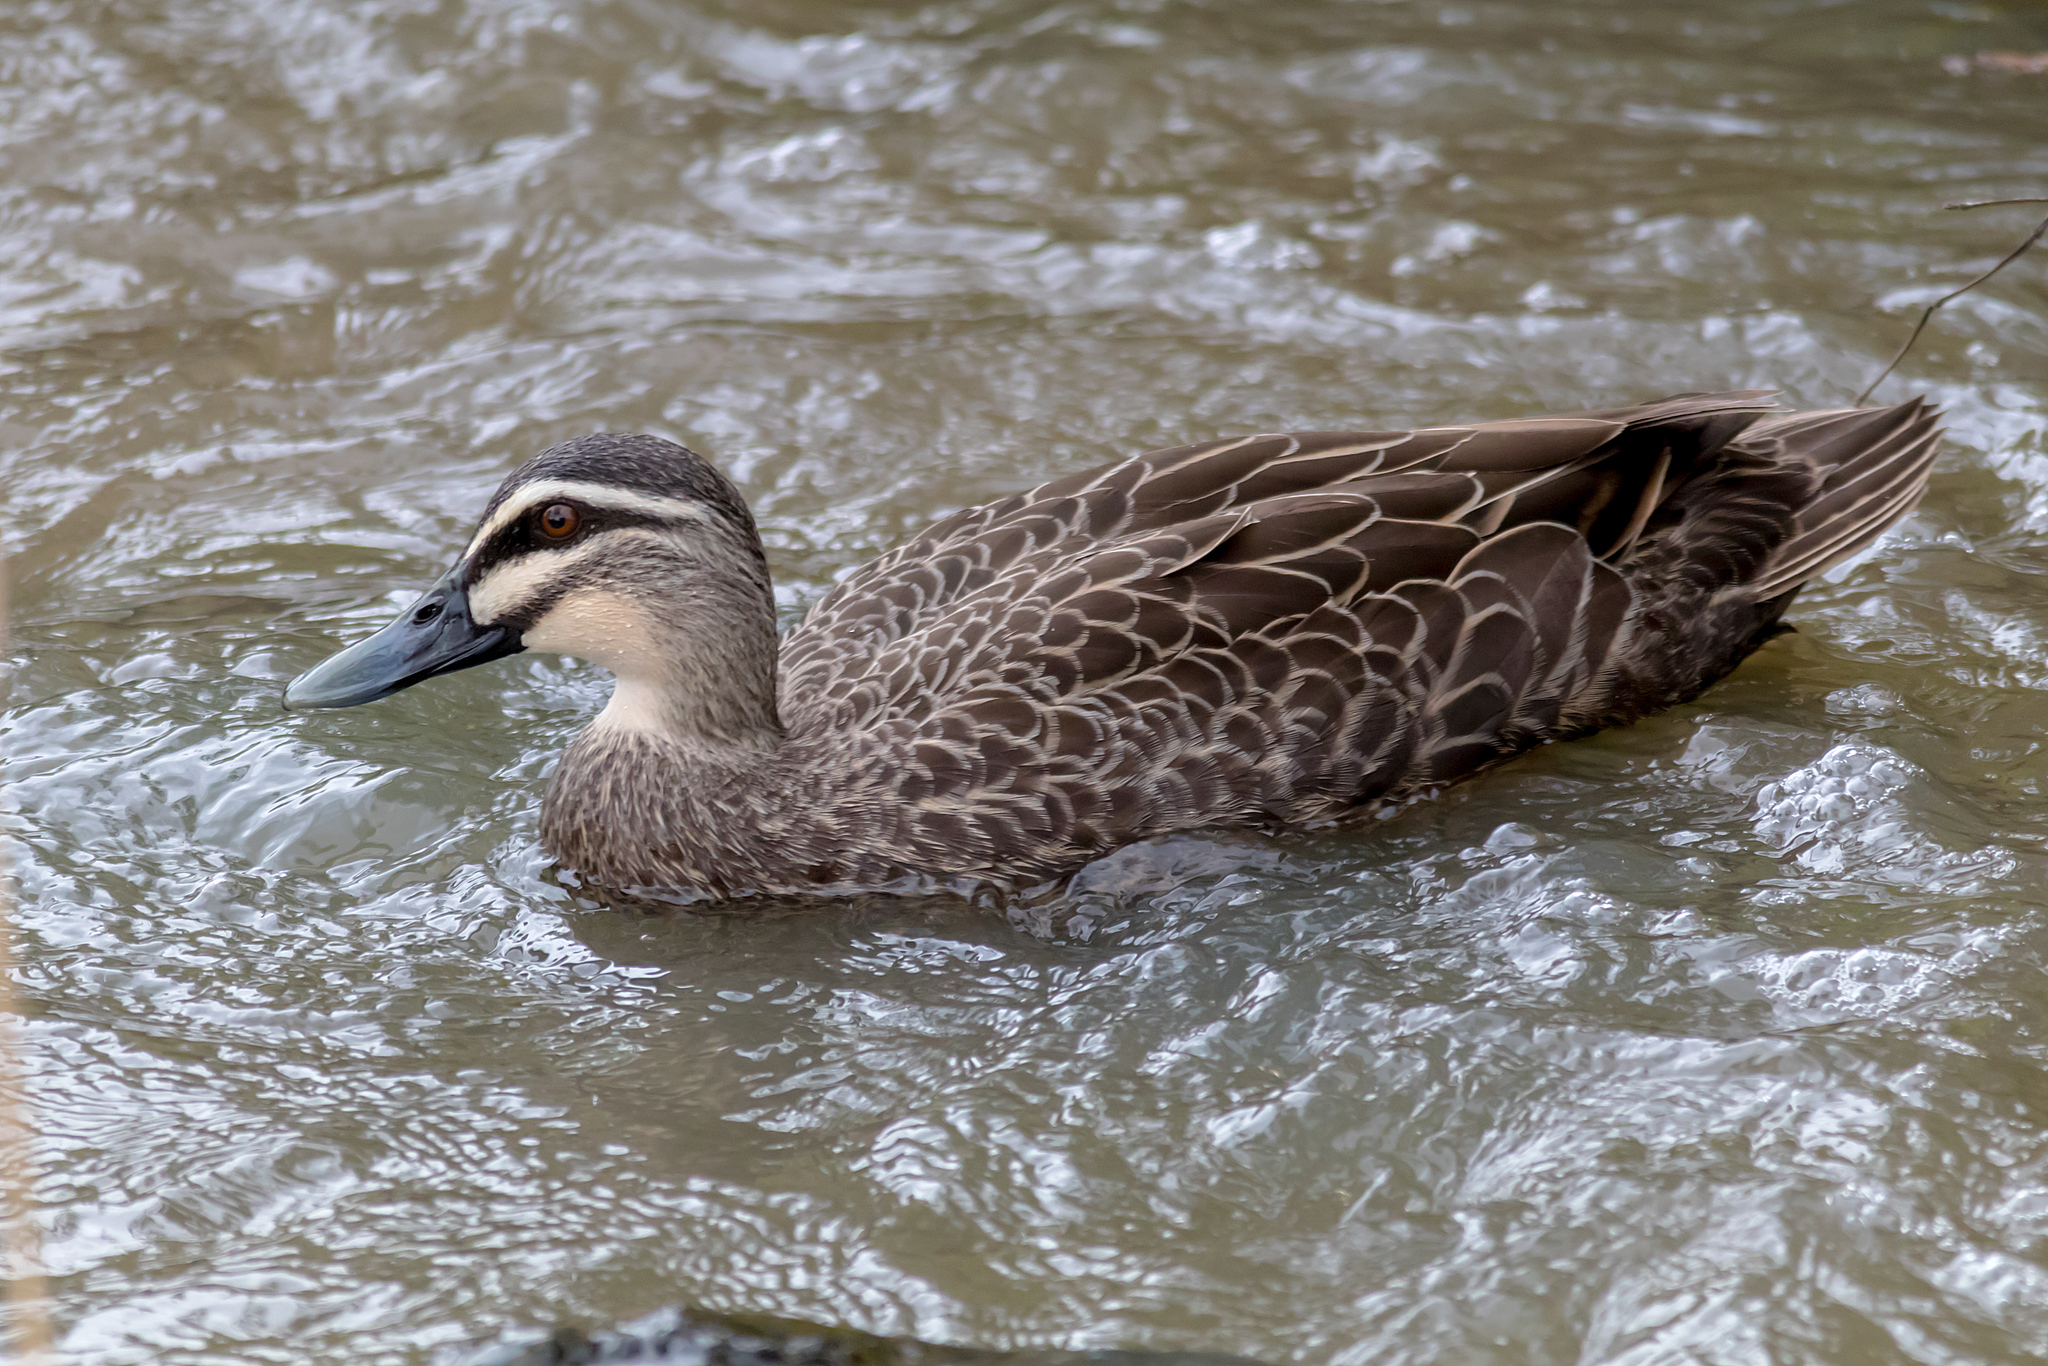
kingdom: Animalia
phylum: Chordata
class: Aves
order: Anseriformes
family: Anatidae
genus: Anas
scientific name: Anas superciliosa
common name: Pacific black duck
